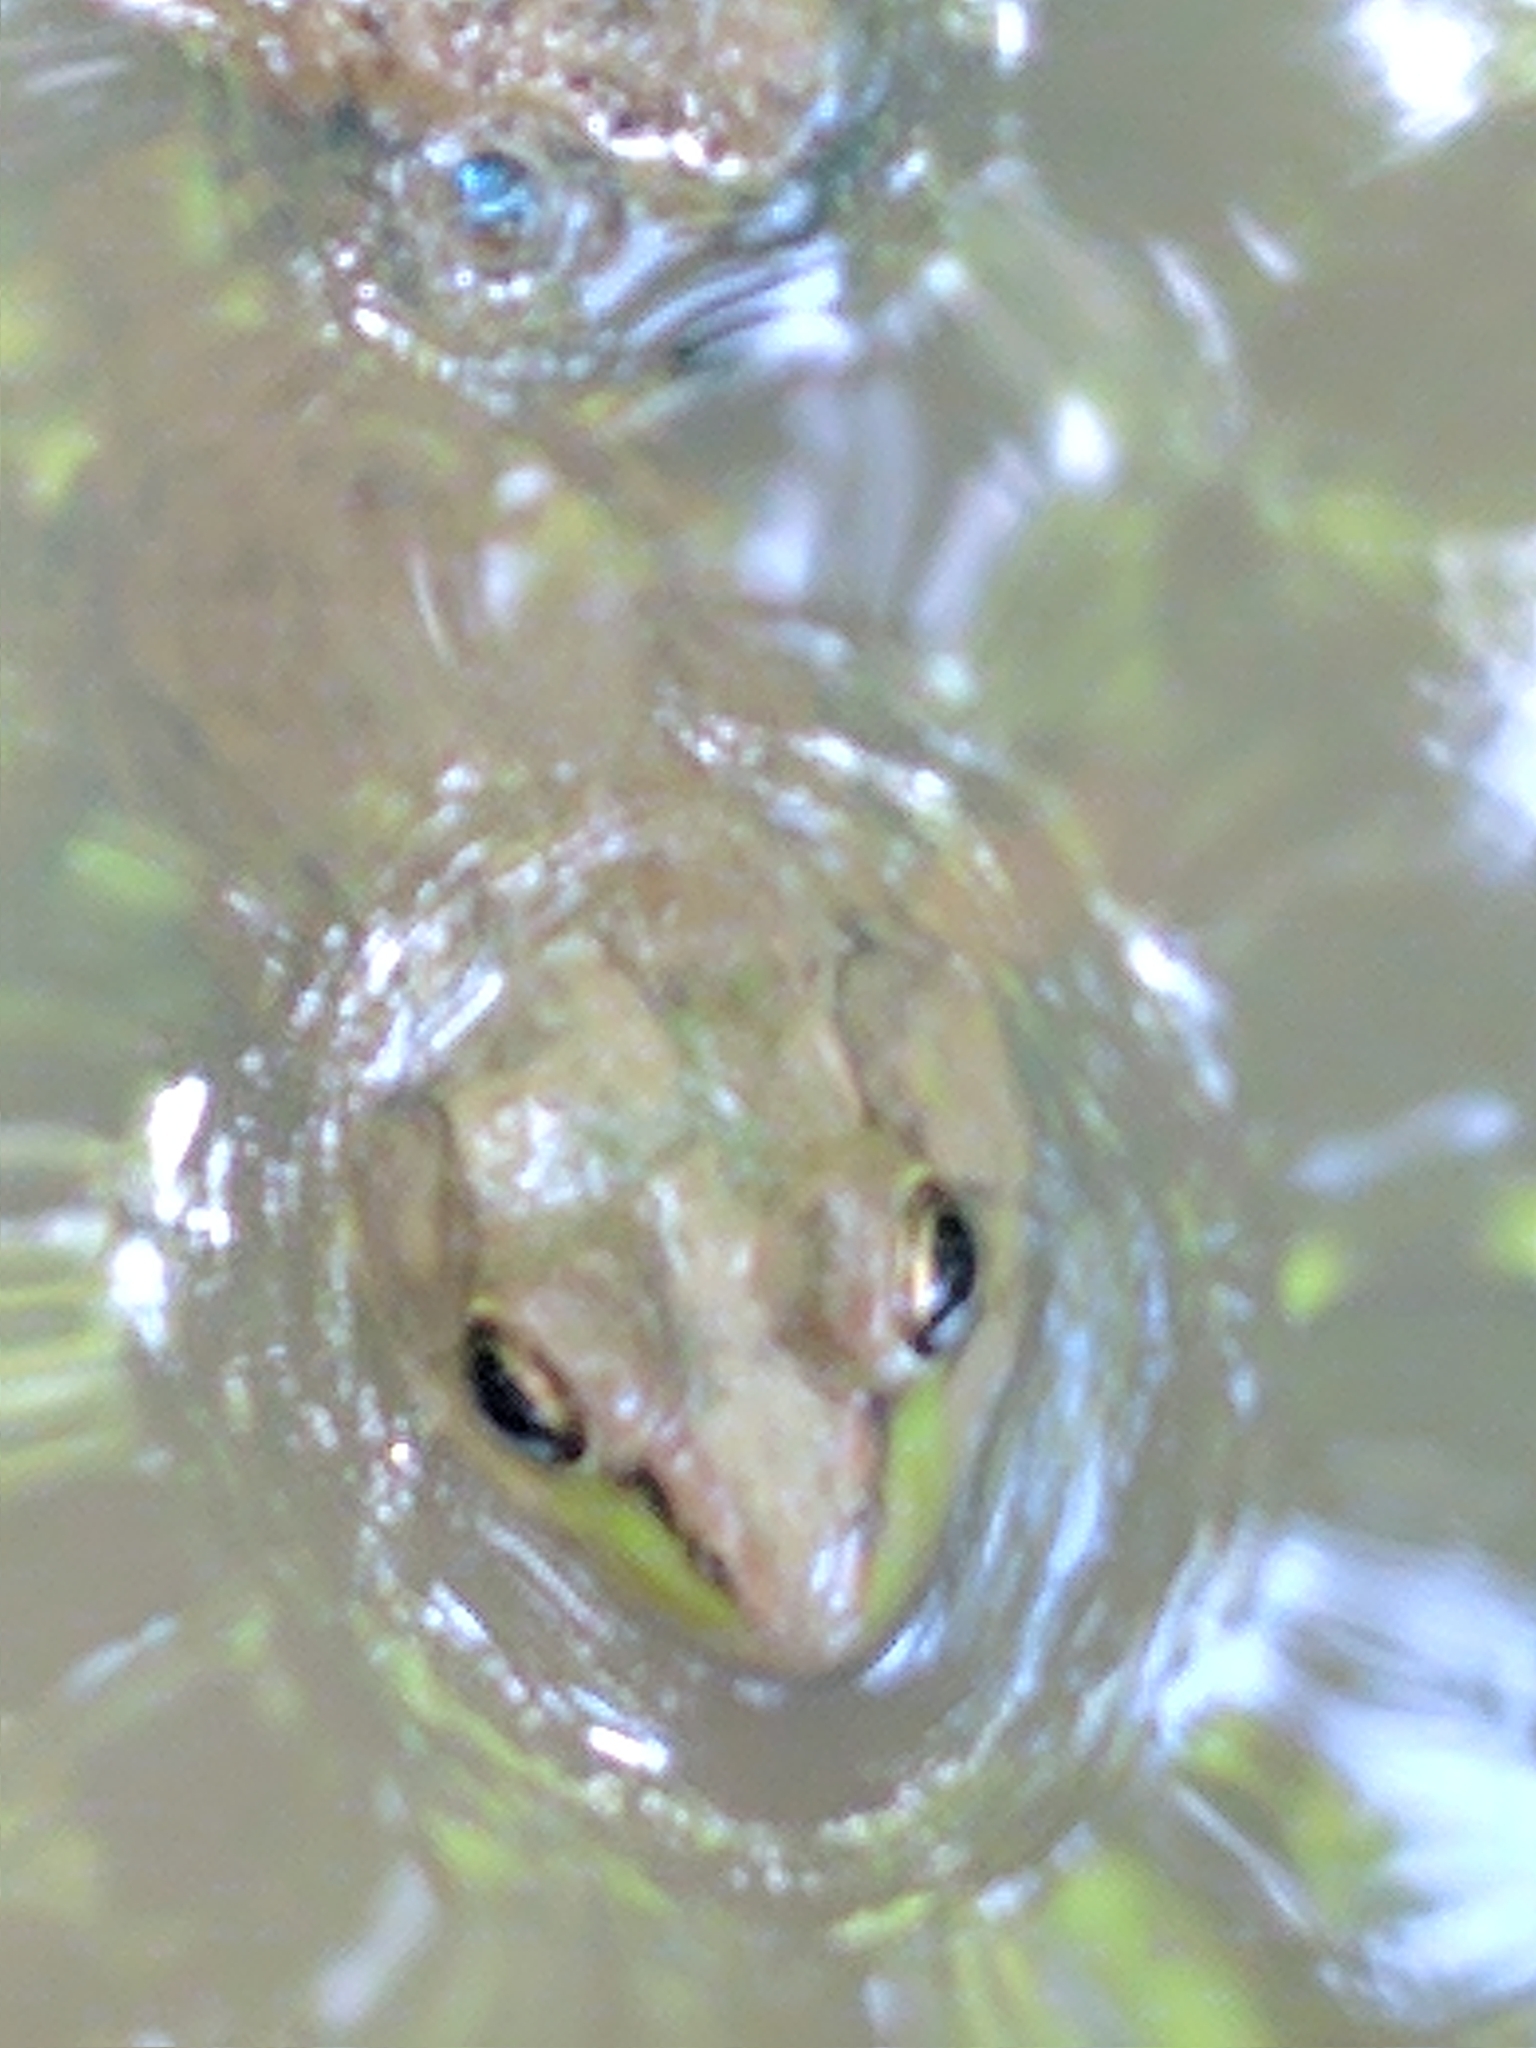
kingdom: Animalia
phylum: Chordata
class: Amphibia
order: Anura
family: Ranidae
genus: Lithobates
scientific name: Lithobates clamitans
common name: Green frog
